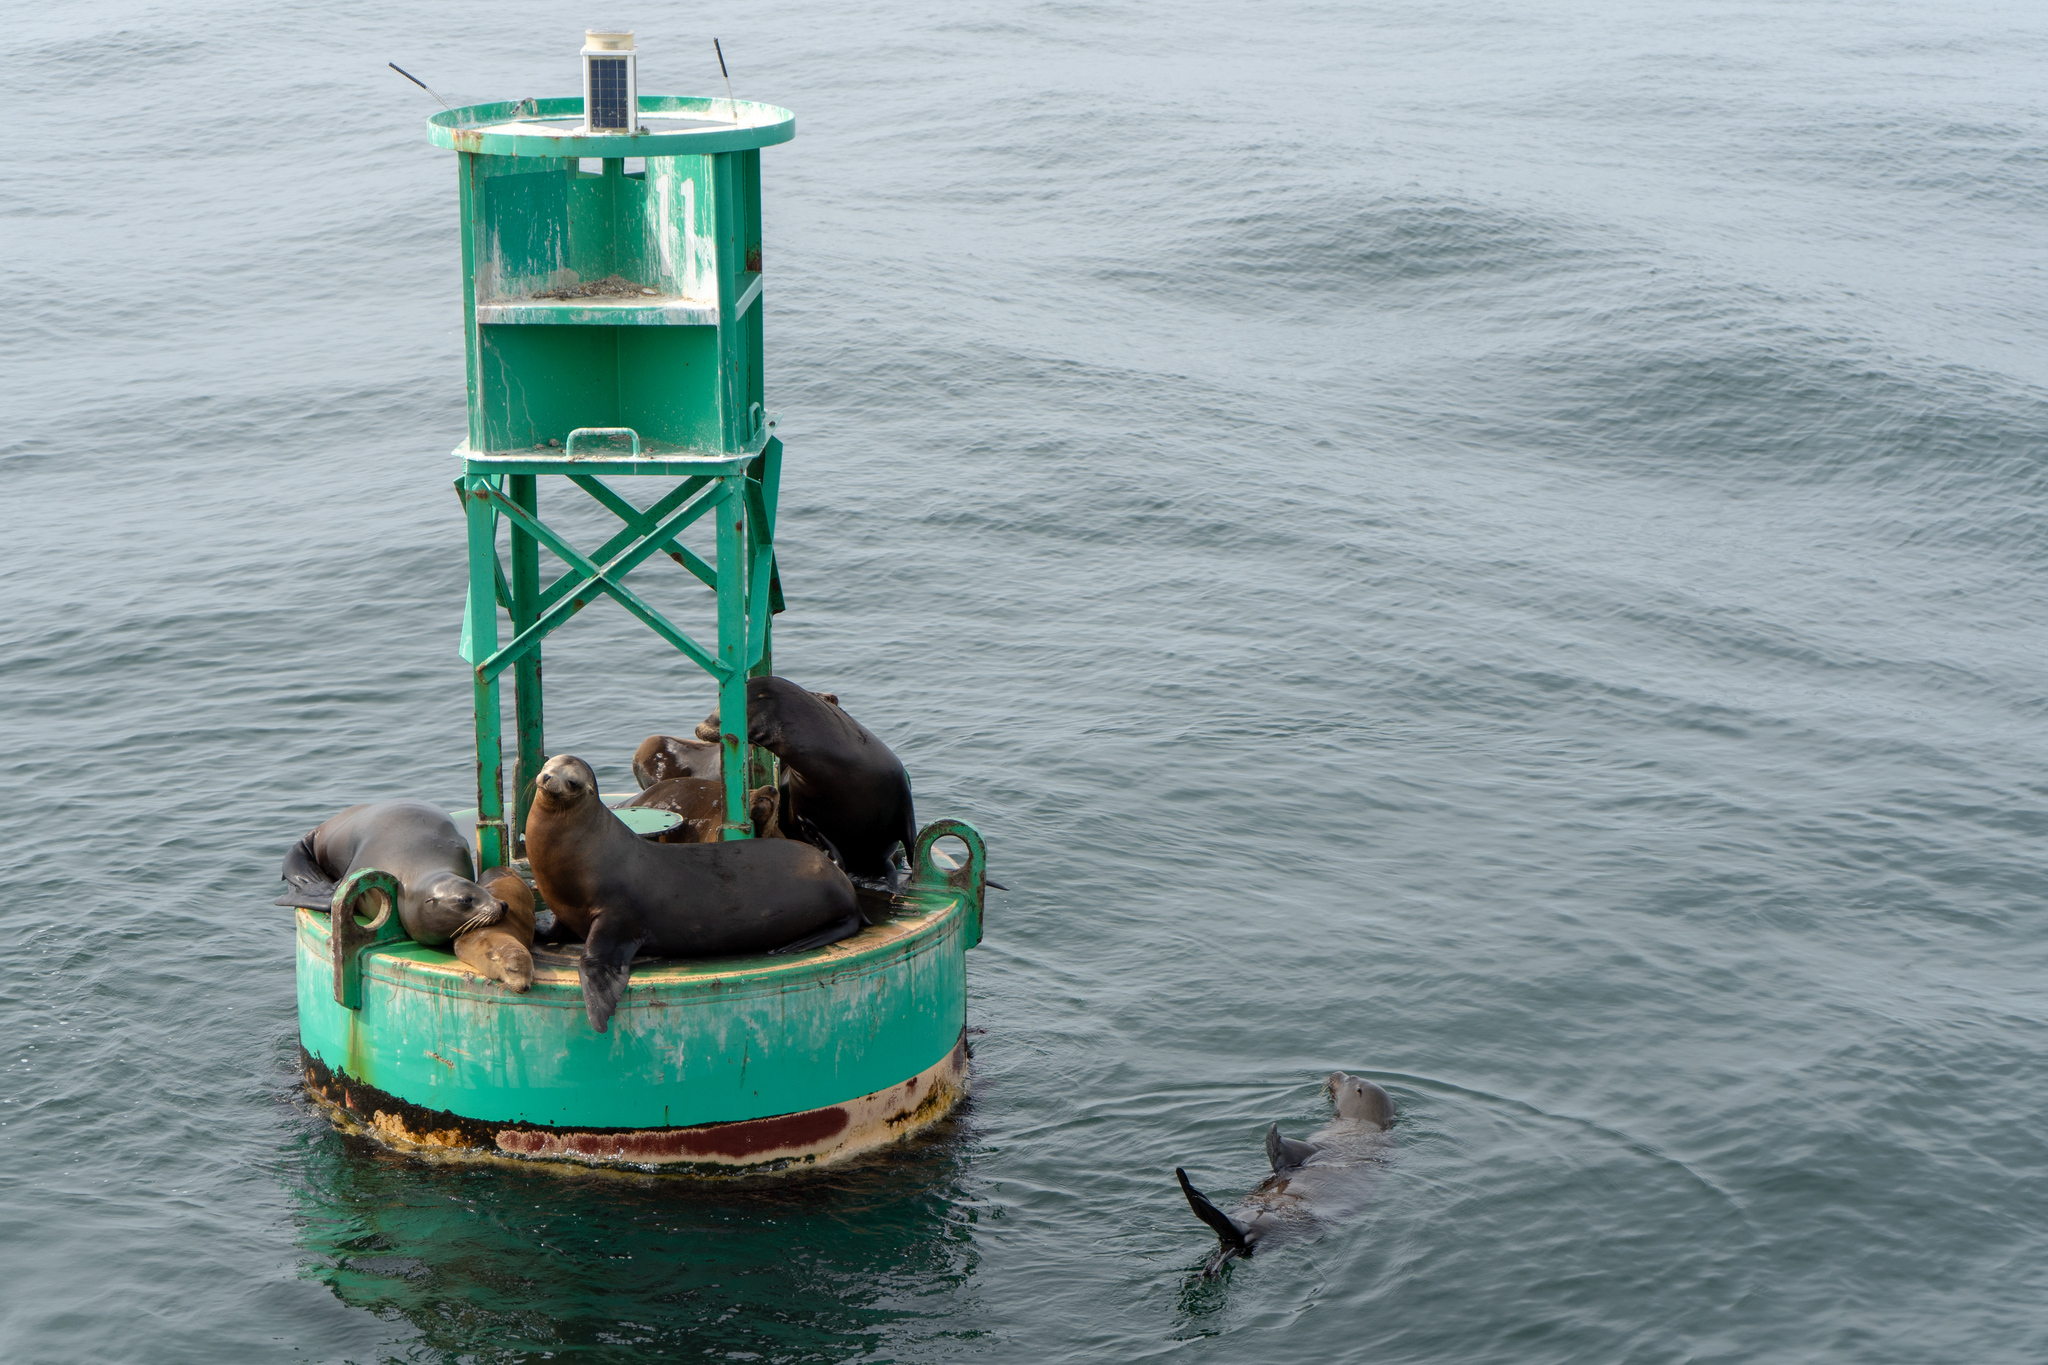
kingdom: Animalia
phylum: Chordata
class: Mammalia
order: Carnivora
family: Otariidae
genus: Zalophus
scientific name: Zalophus californianus
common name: California sea lion
